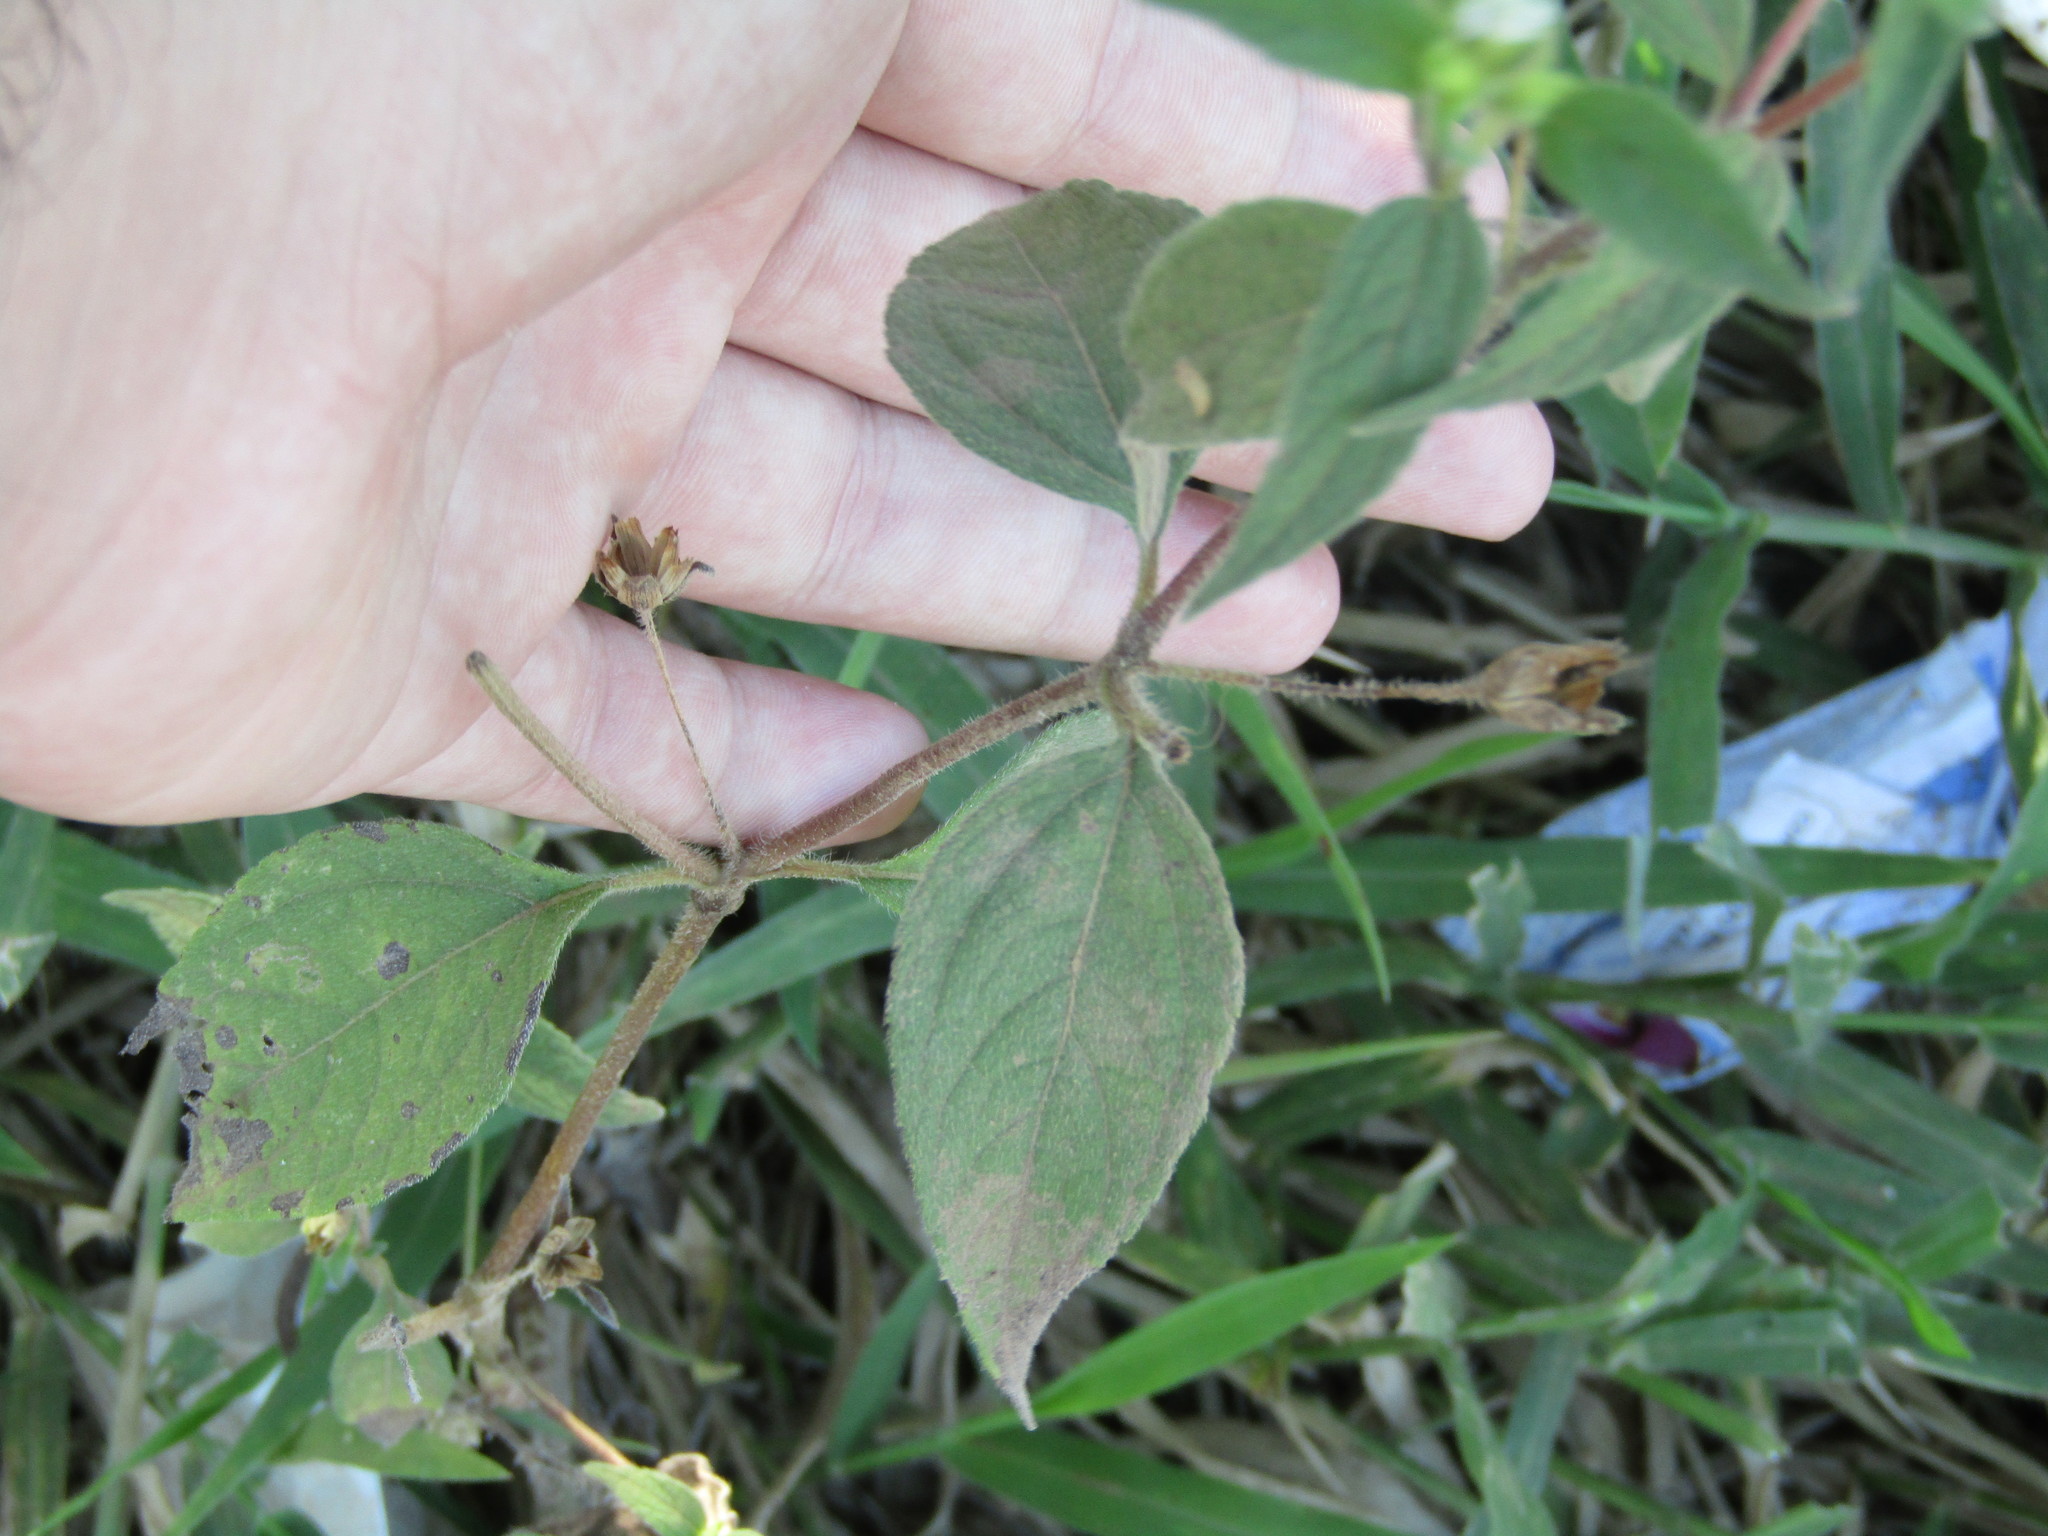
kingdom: Plantae
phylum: Tracheophyta
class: Magnoliopsida
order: Asterales
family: Asteraceae
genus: Blainvillea
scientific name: Blainvillea gayana
